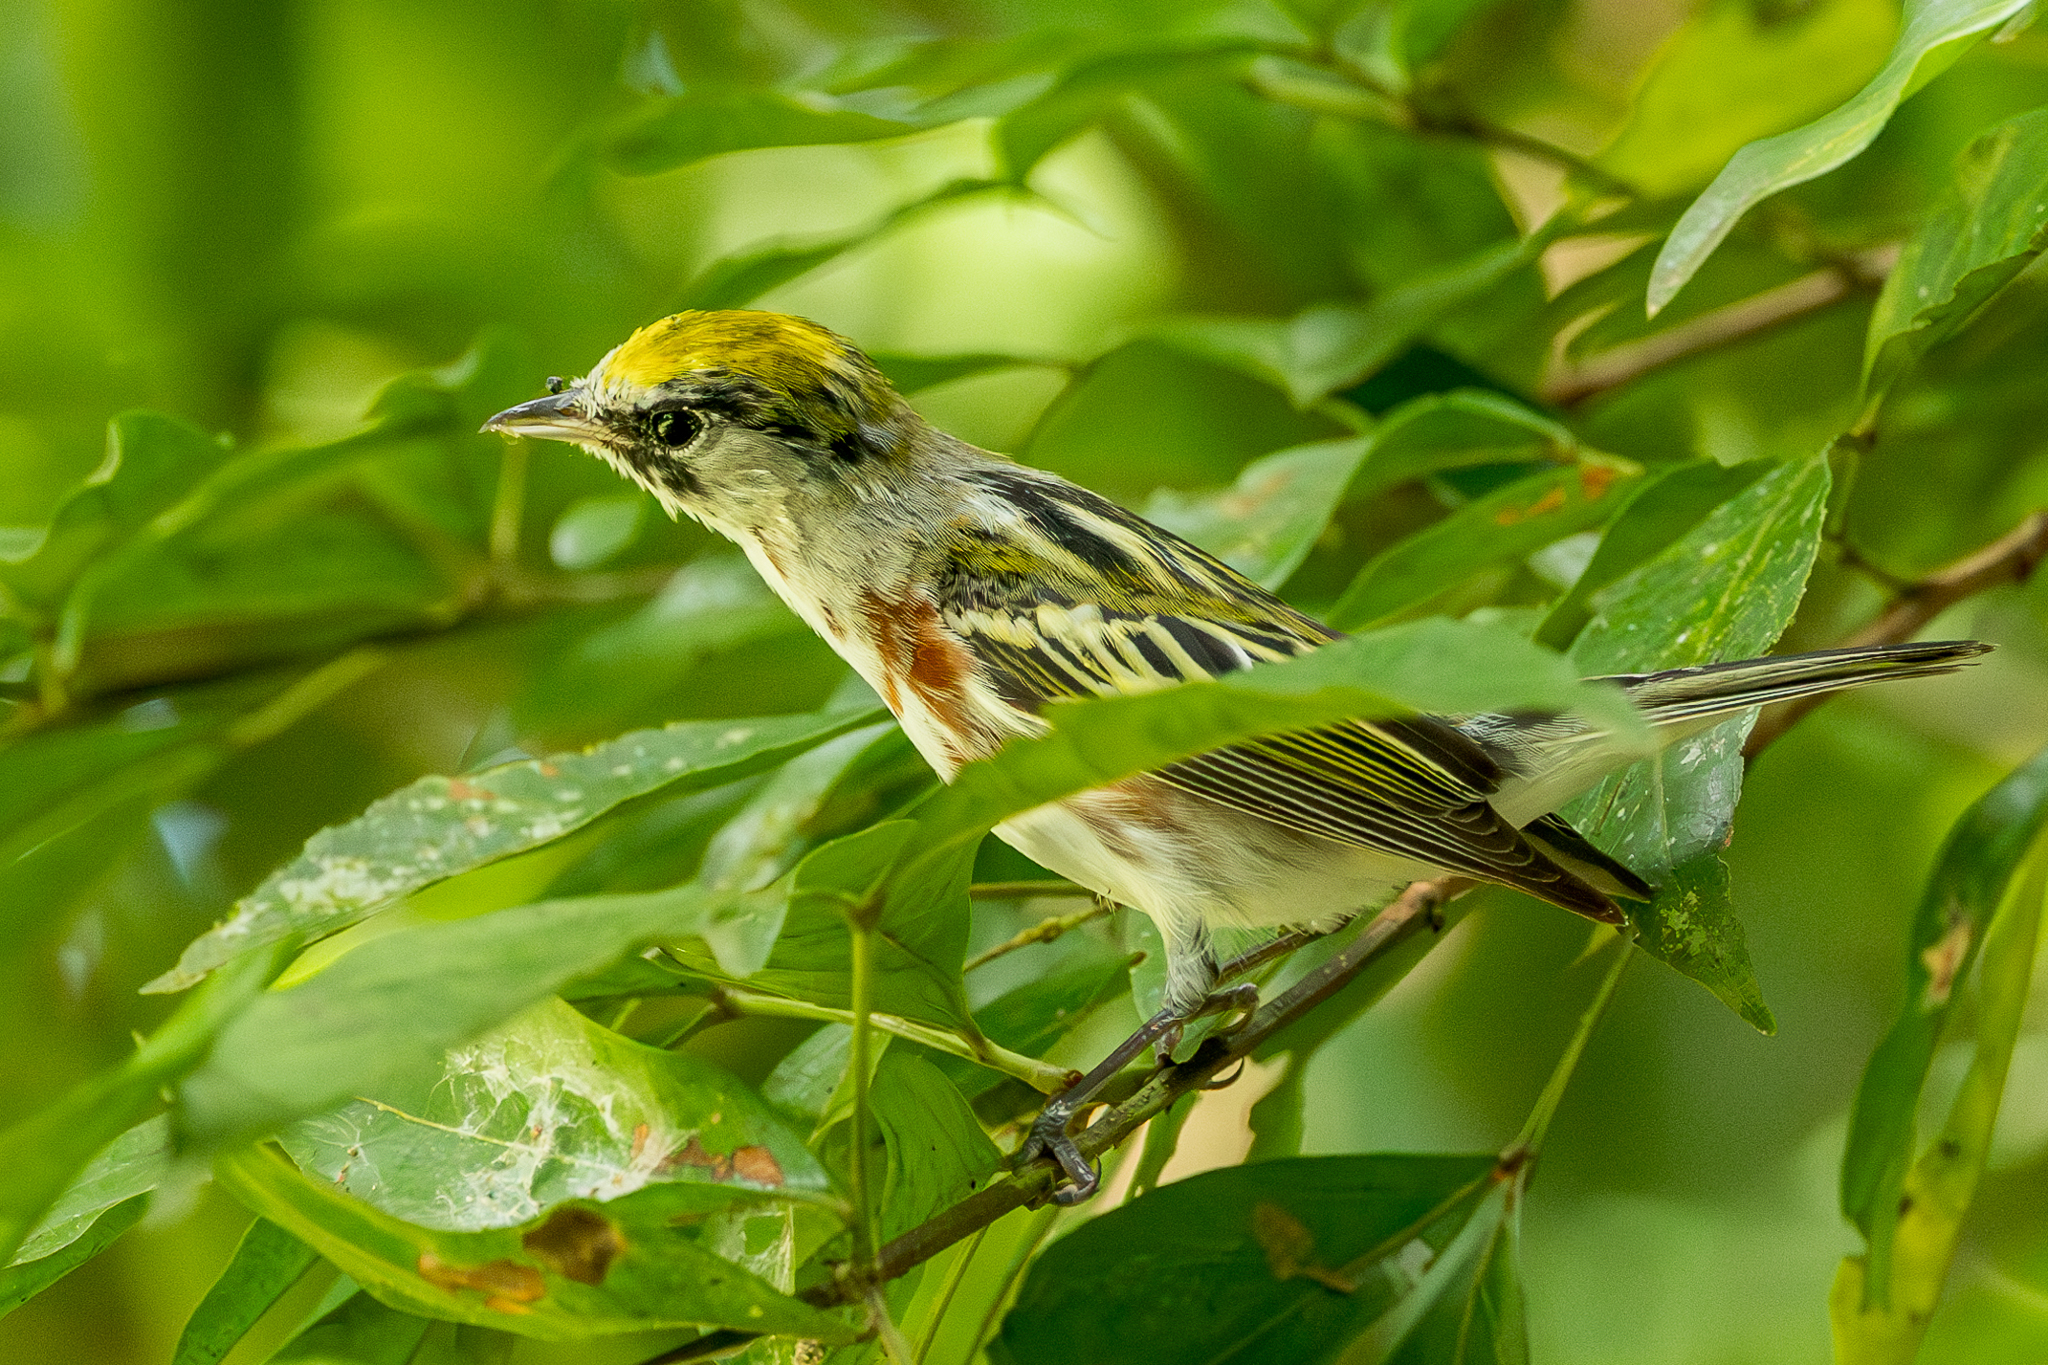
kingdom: Animalia
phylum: Chordata
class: Aves
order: Passeriformes
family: Parulidae
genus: Setophaga
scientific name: Setophaga pensylvanica
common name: Chestnut-sided warbler
